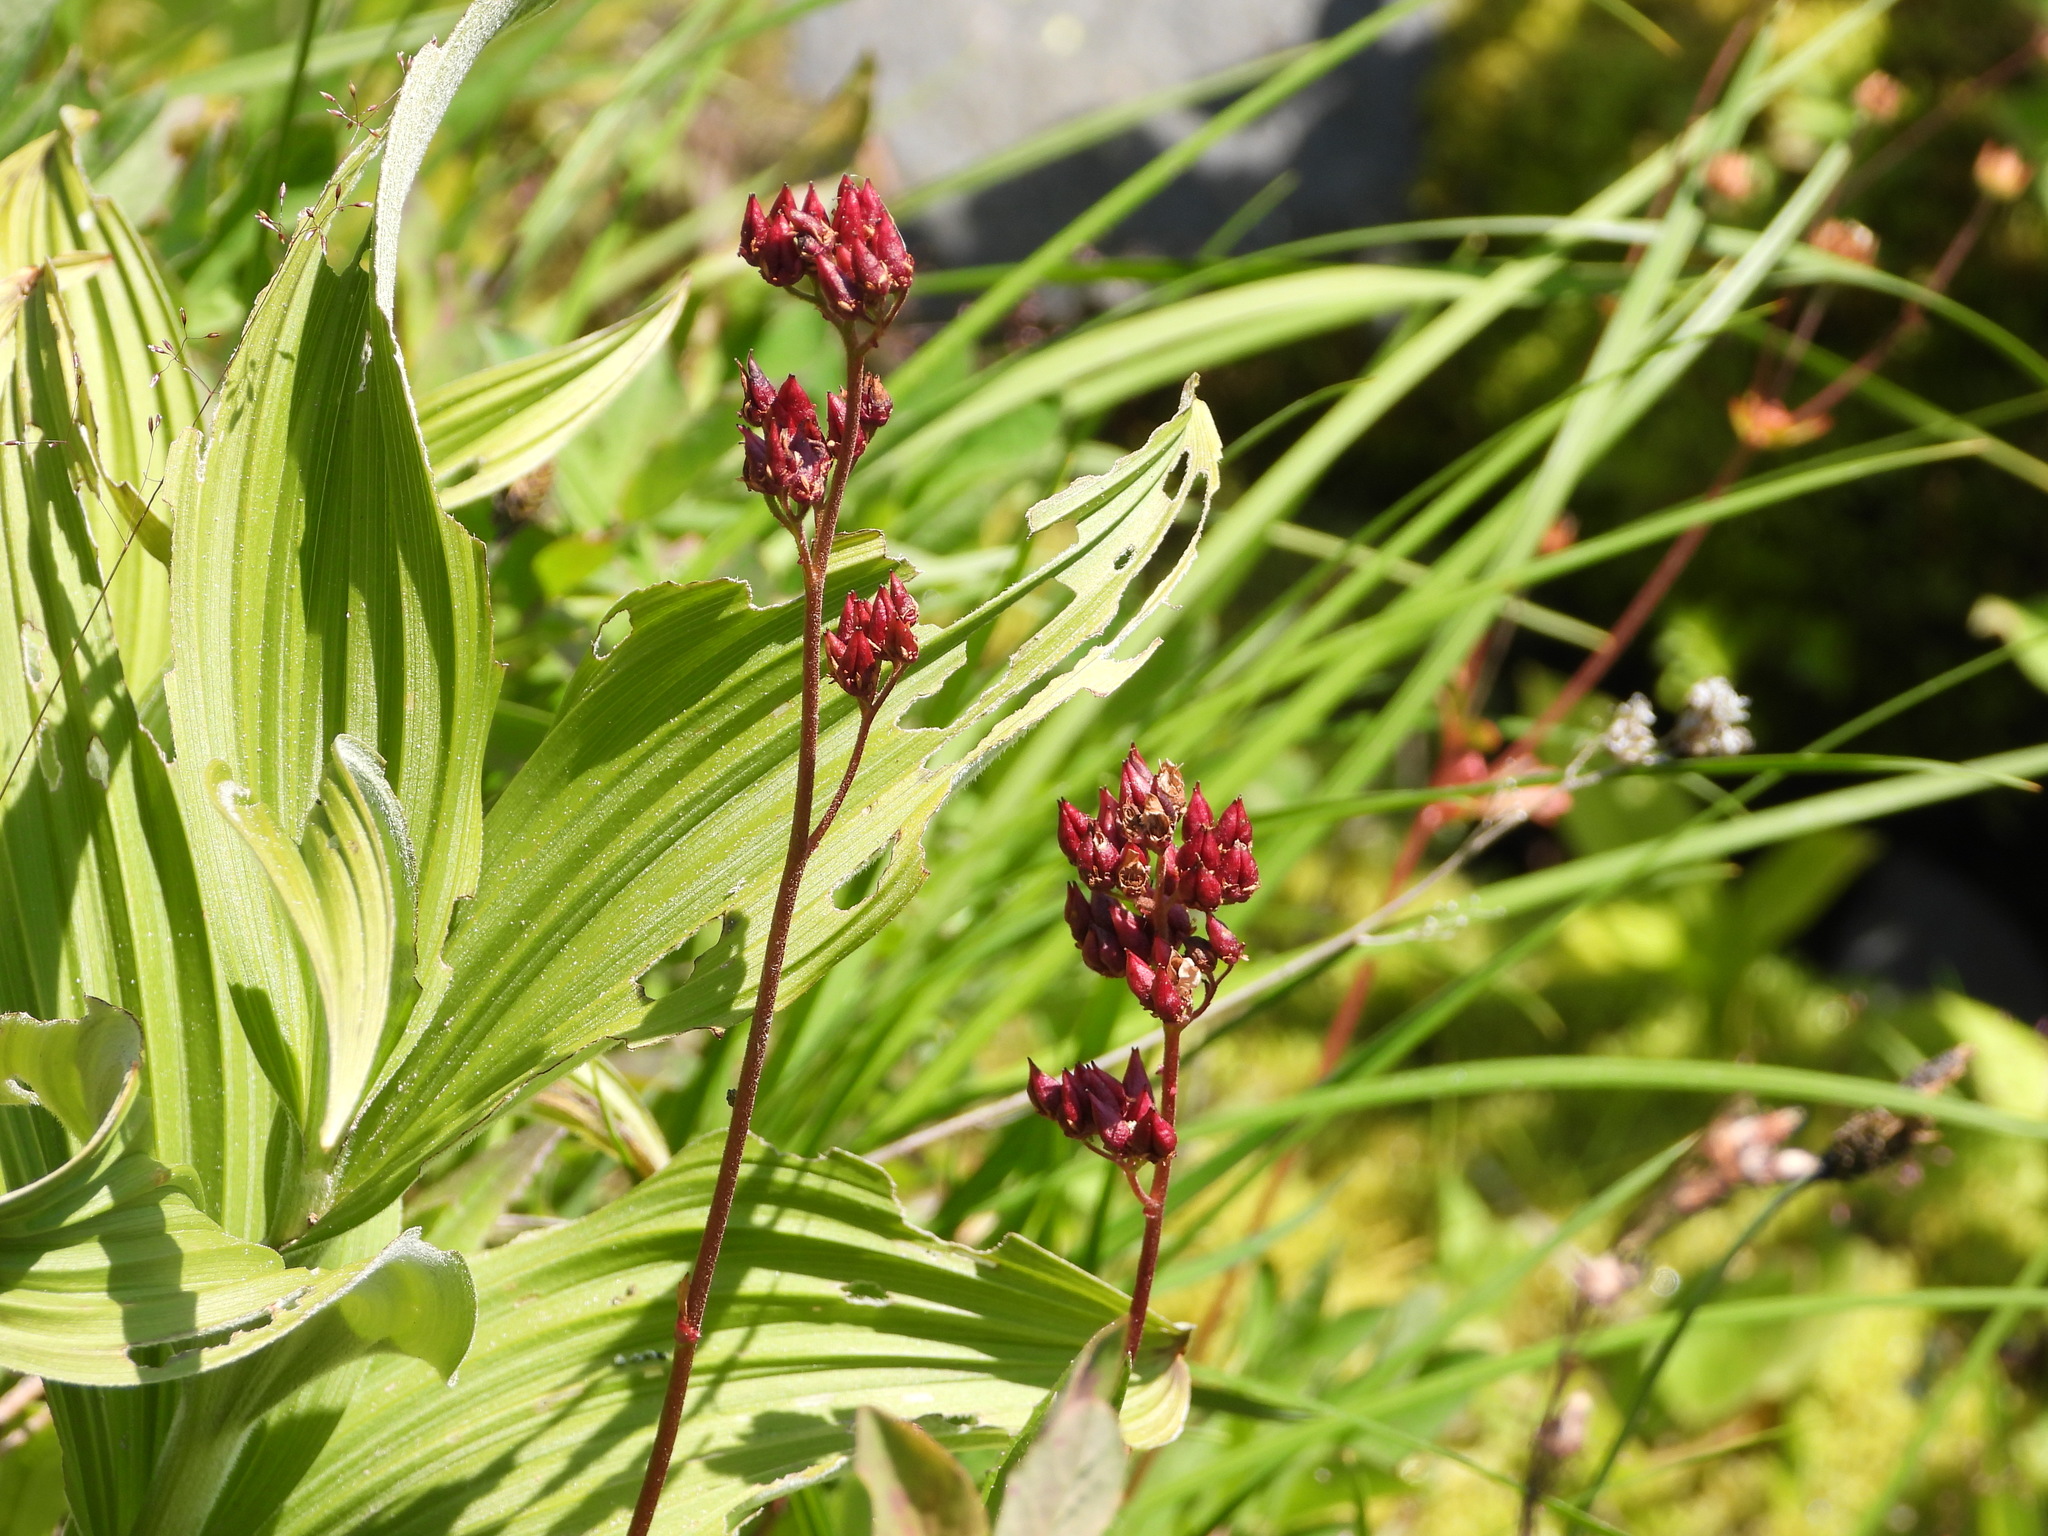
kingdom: Plantae
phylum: Tracheophyta
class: Magnoliopsida
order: Saxifragales
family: Saxifragaceae
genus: Leptarrhena
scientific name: Leptarrhena pyrolifolia
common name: Leatherleaf-saxifrage
